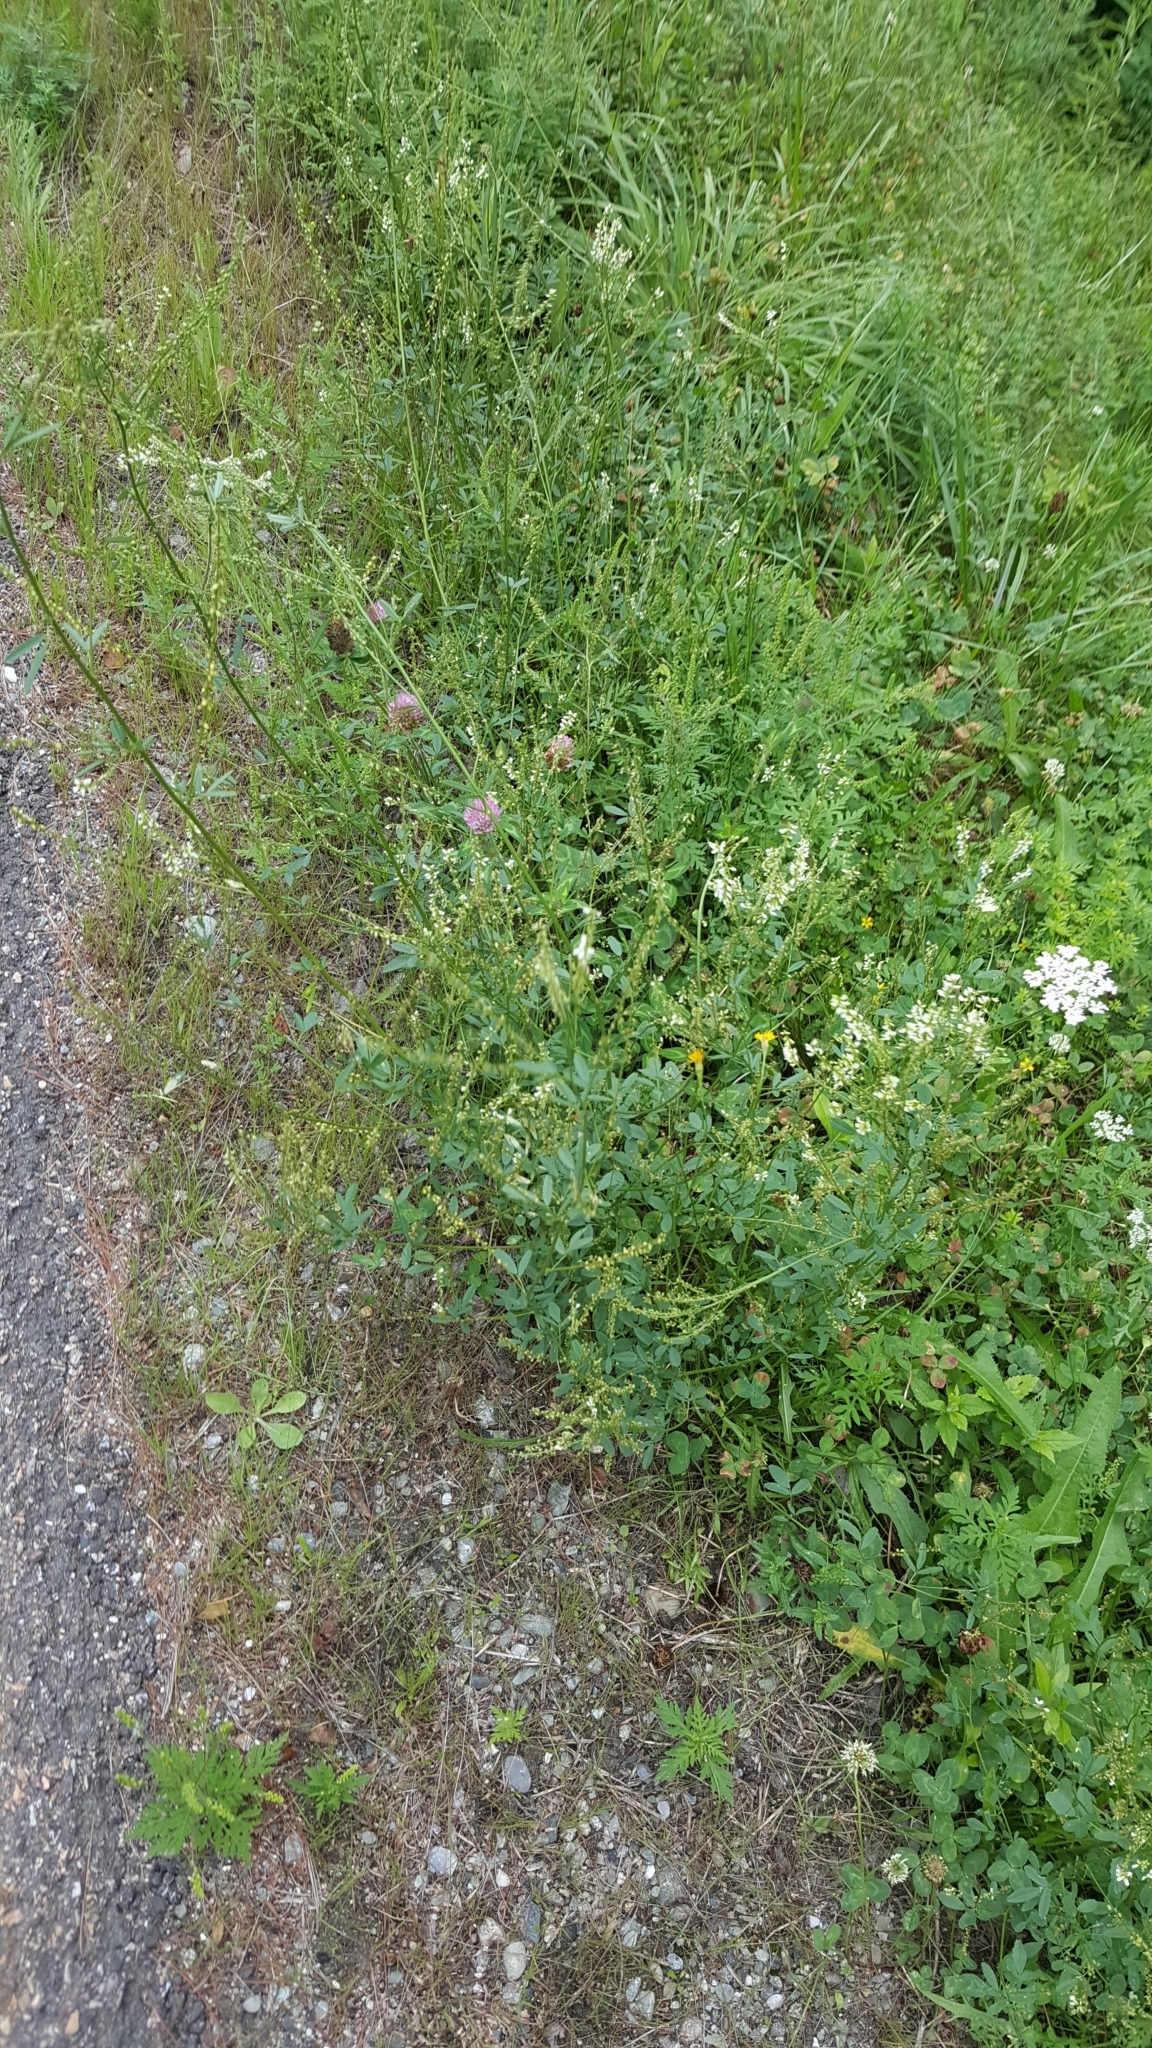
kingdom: Plantae
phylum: Tracheophyta
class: Magnoliopsida
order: Fabales
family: Fabaceae
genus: Melilotus
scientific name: Melilotus albus
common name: White melilot
